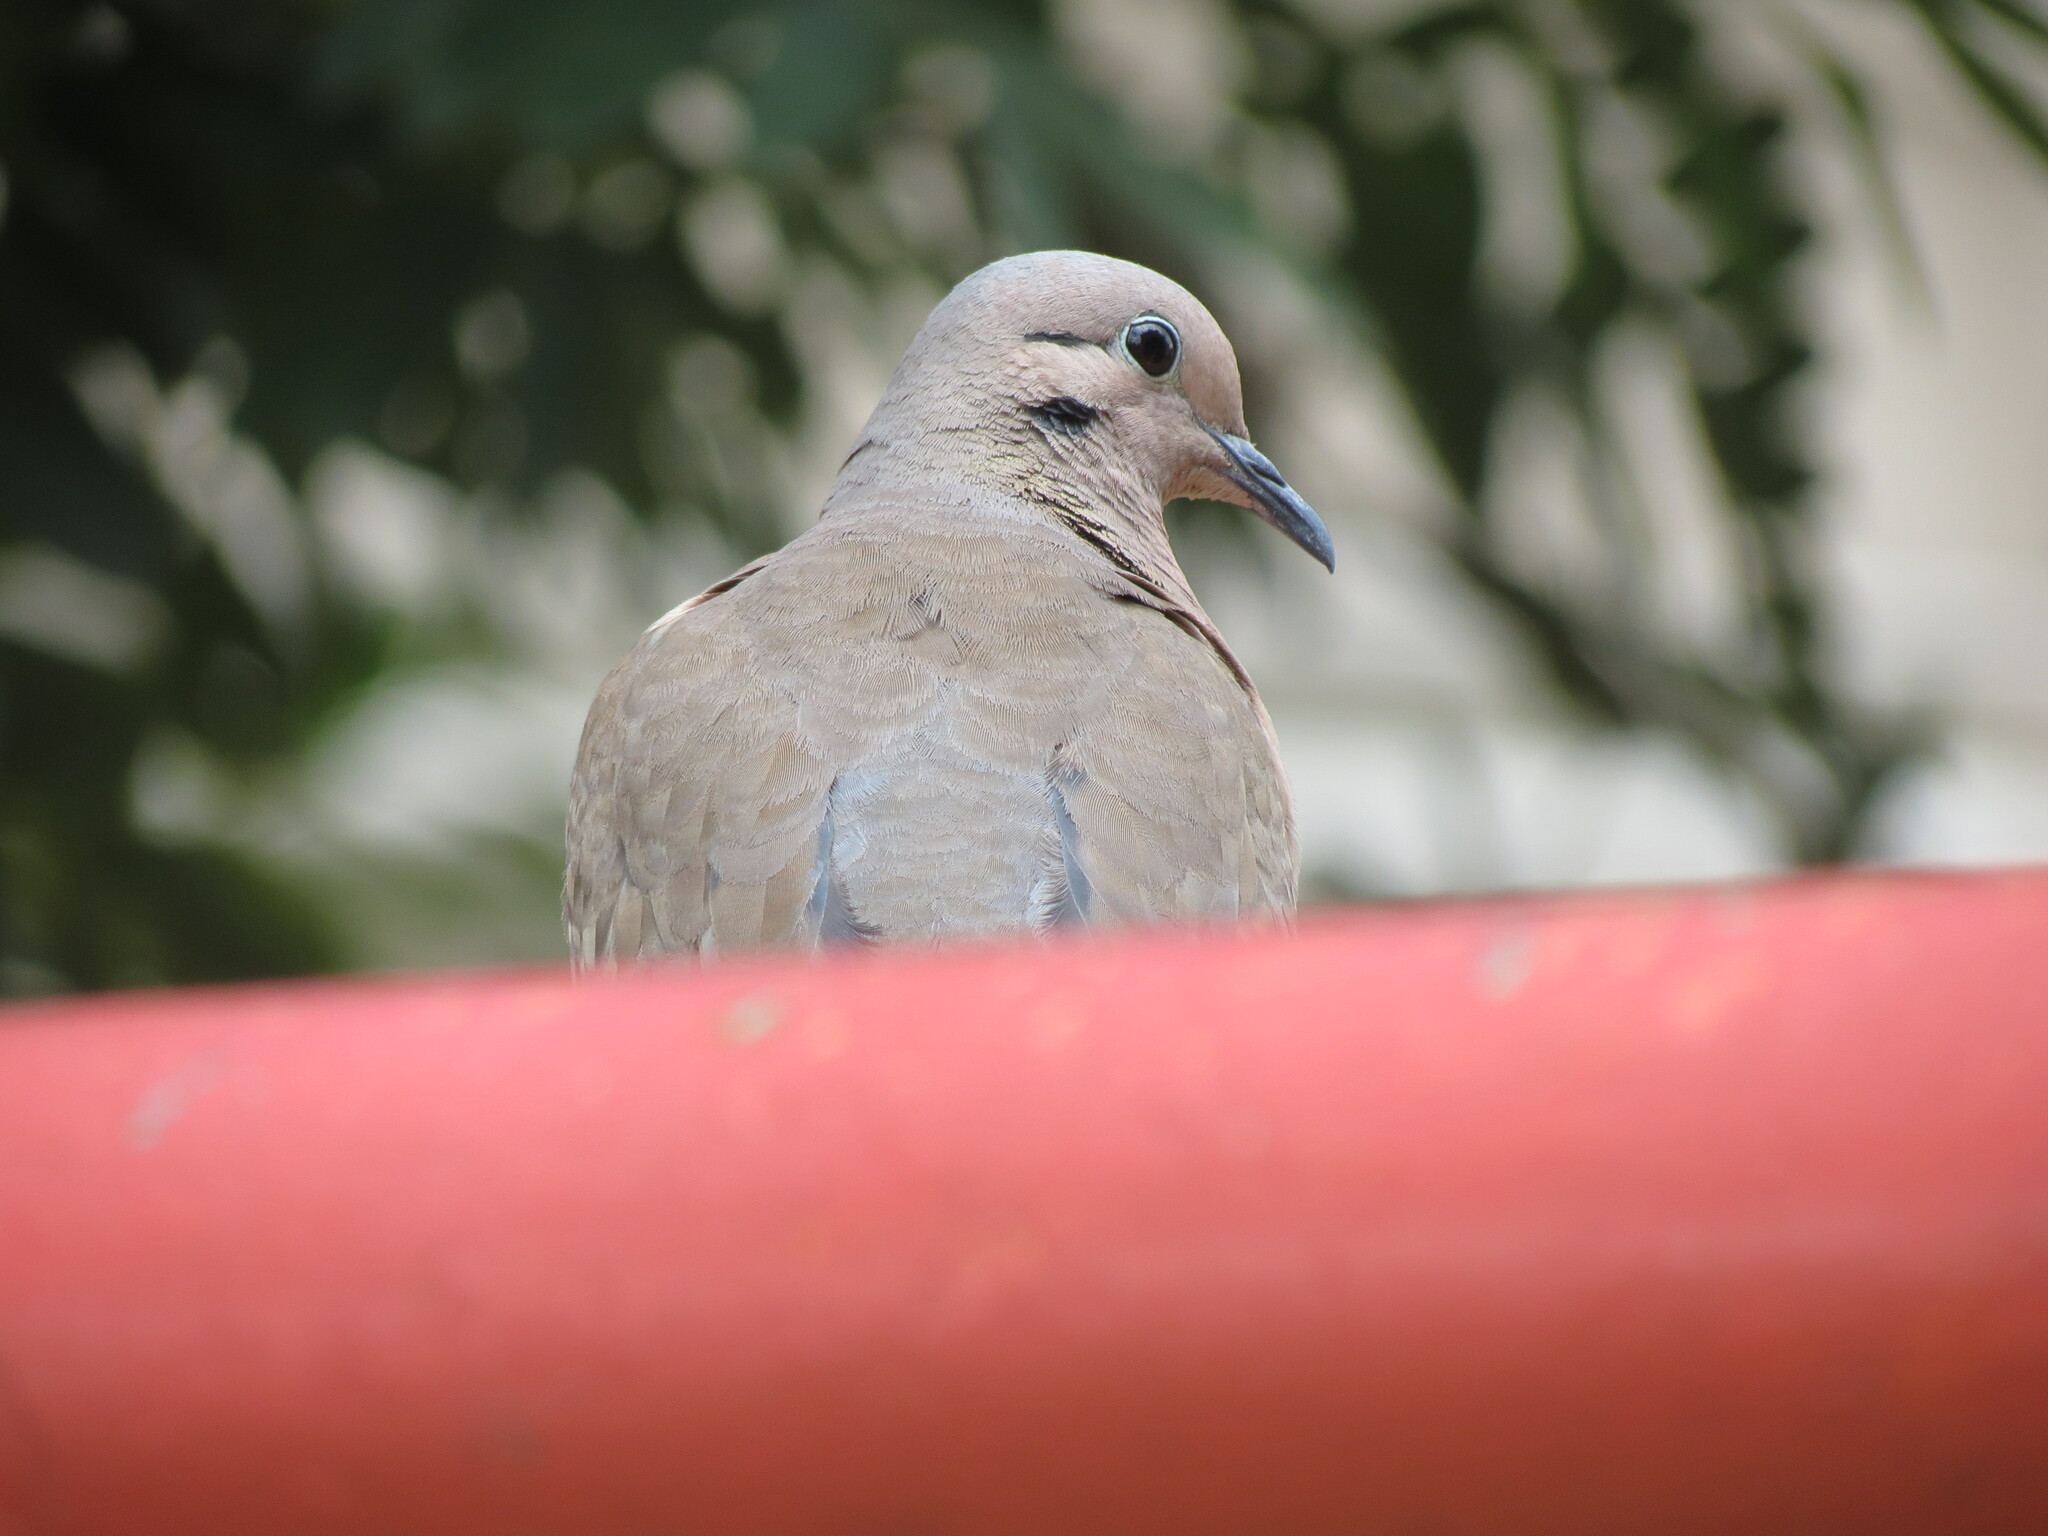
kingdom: Animalia
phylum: Chordata
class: Aves
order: Columbiformes
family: Columbidae
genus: Zenaida
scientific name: Zenaida auriculata
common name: Eared dove
